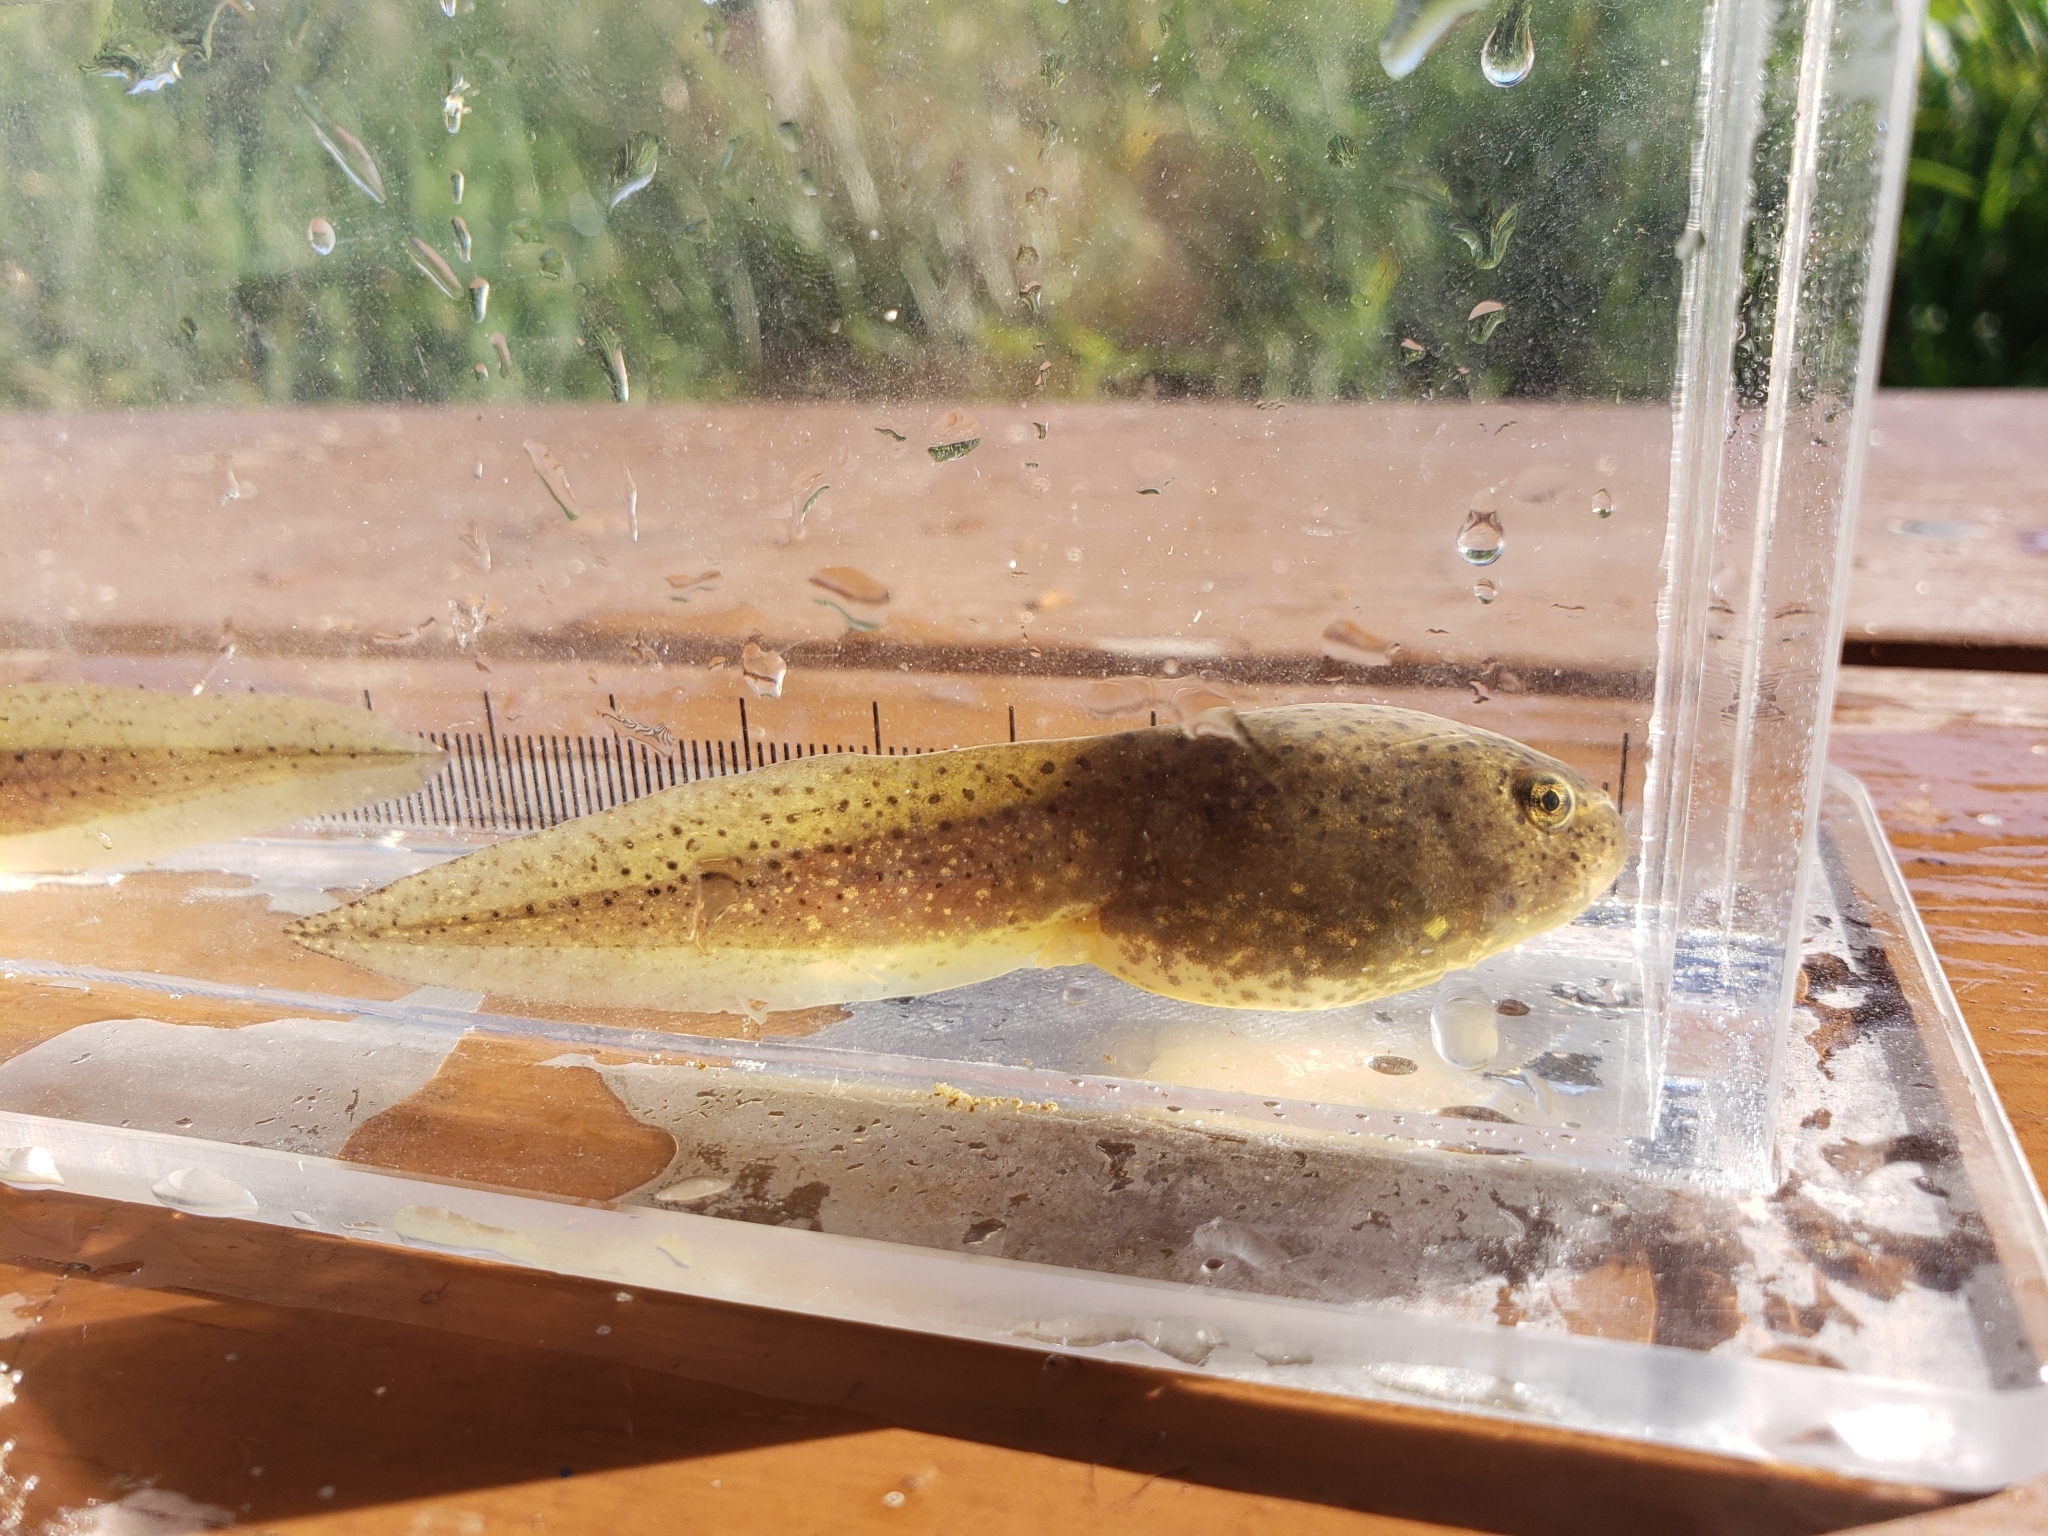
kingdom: Animalia
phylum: Chordata
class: Amphibia
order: Anura
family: Ranidae
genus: Lithobates
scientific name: Lithobates catesbeianus
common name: American bullfrog
